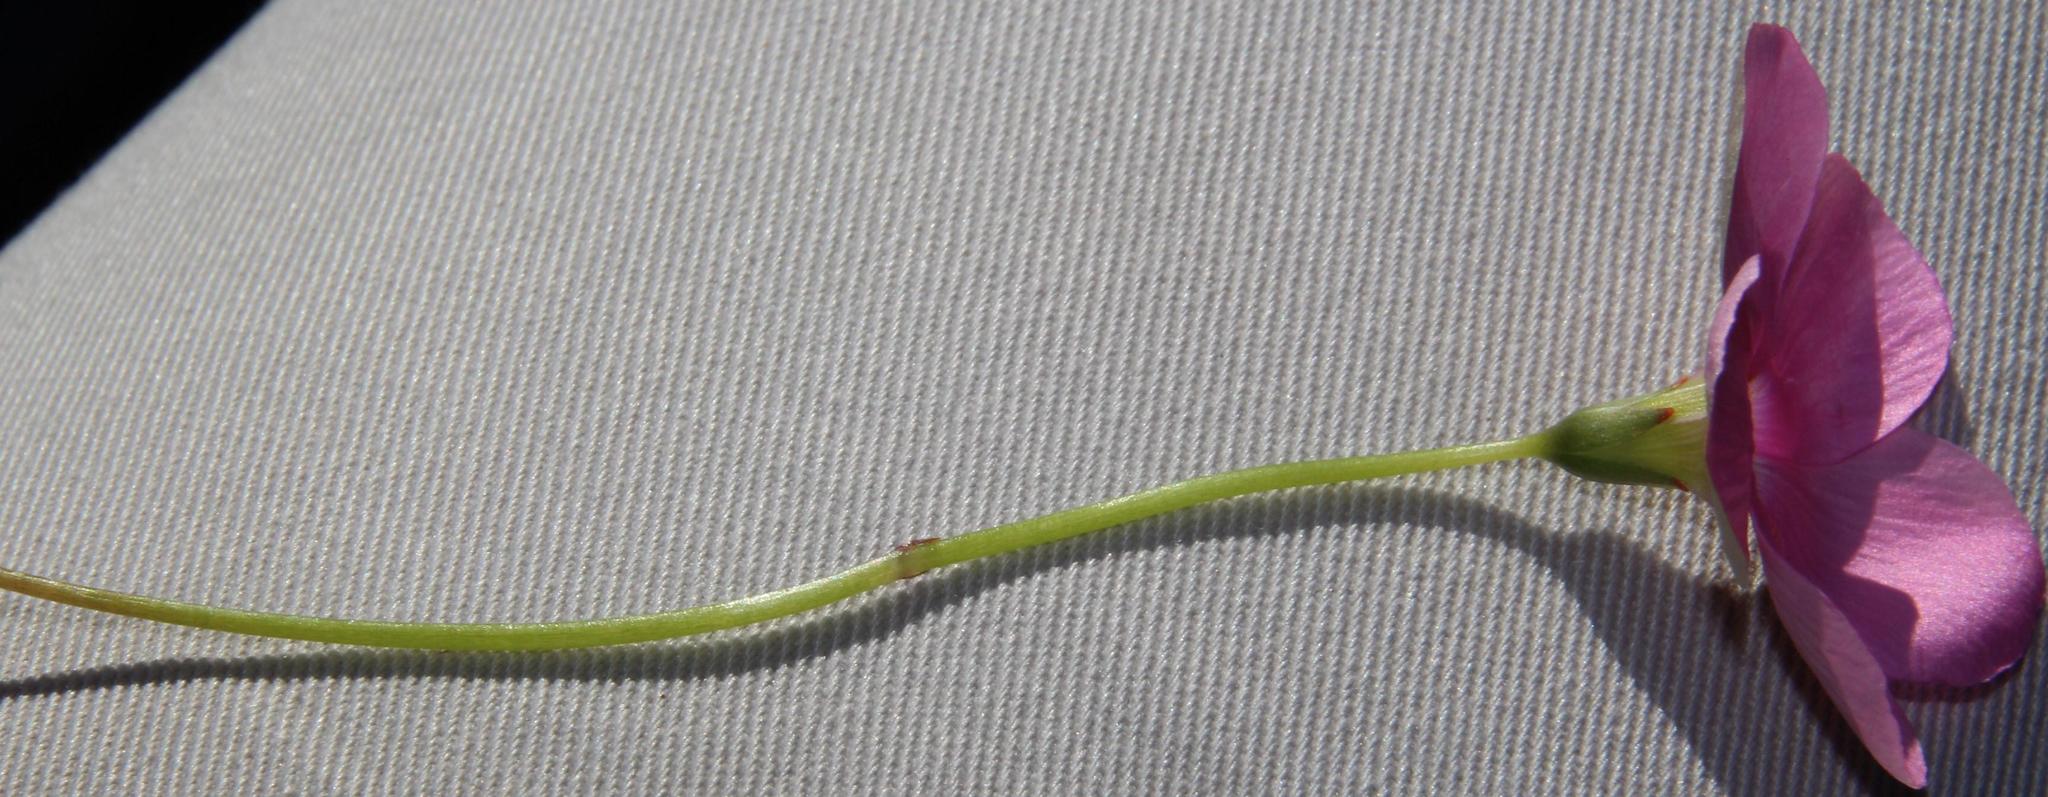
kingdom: Plantae
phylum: Tracheophyta
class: Magnoliopsida
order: Oxalidales
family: Oxalidaceae
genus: Oxalis
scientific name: Oxalis smithiana
